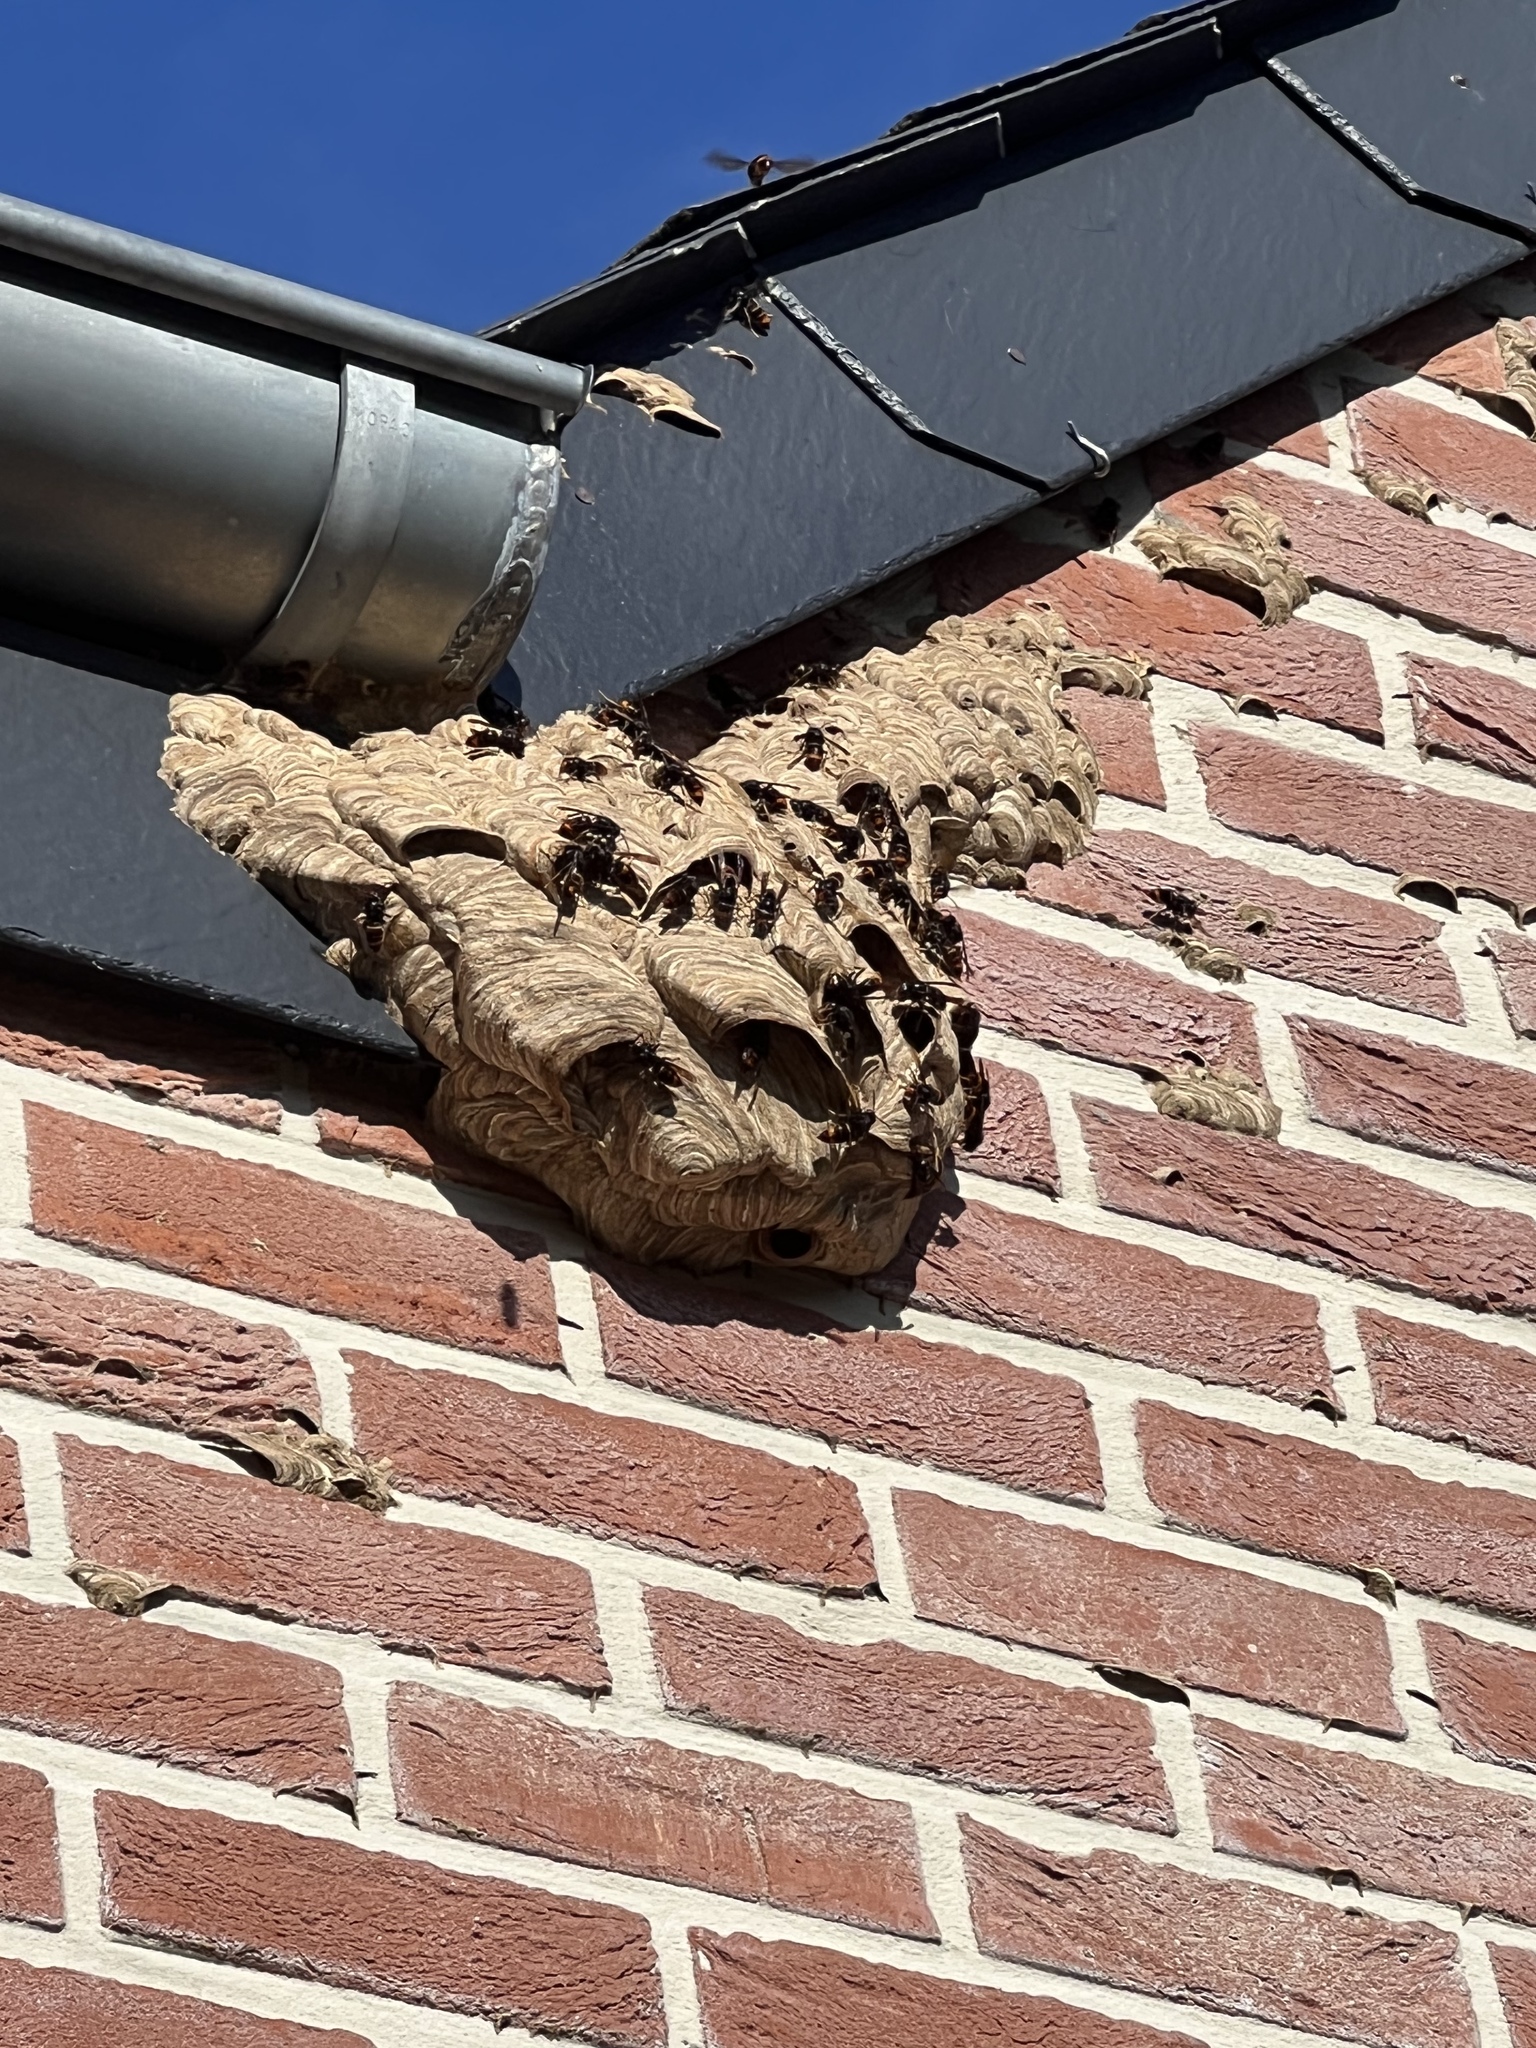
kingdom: Animalia
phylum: Arthropoda
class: Insecta
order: Hymenoptera
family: Vespidae
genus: Vespa
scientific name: Vespa velutina
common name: Asian hornet
